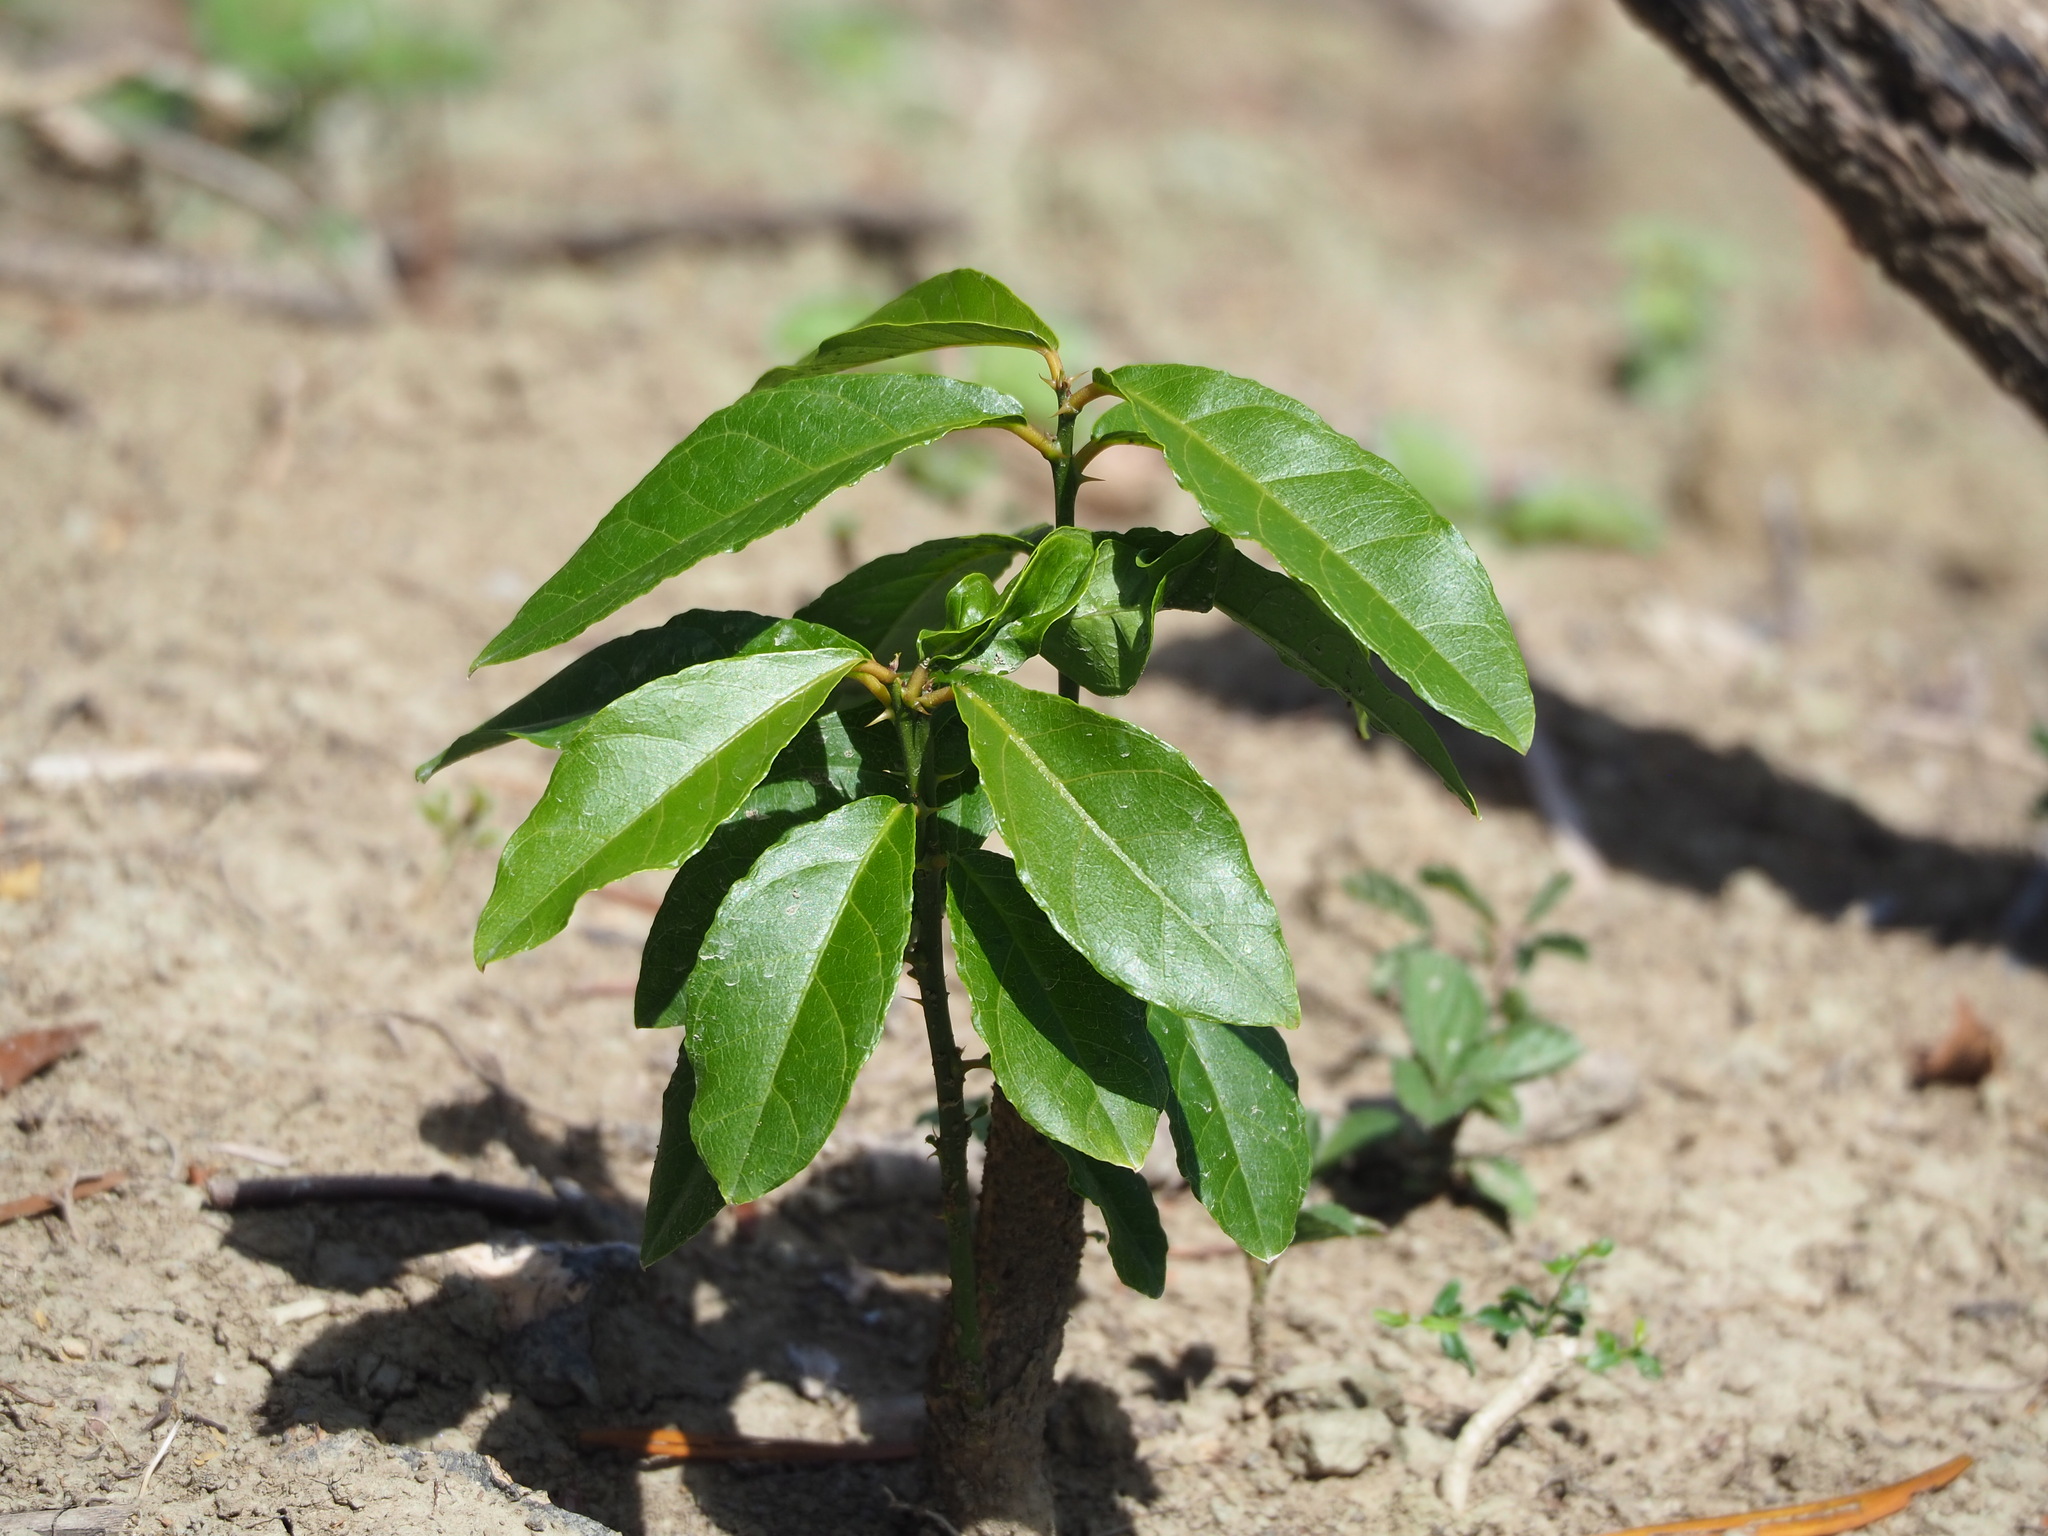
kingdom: Plantae
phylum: Tracheophyta
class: Magnoliopsida
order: Brassicales
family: Capparaceae
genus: Capparis
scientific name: Capparis henryi
